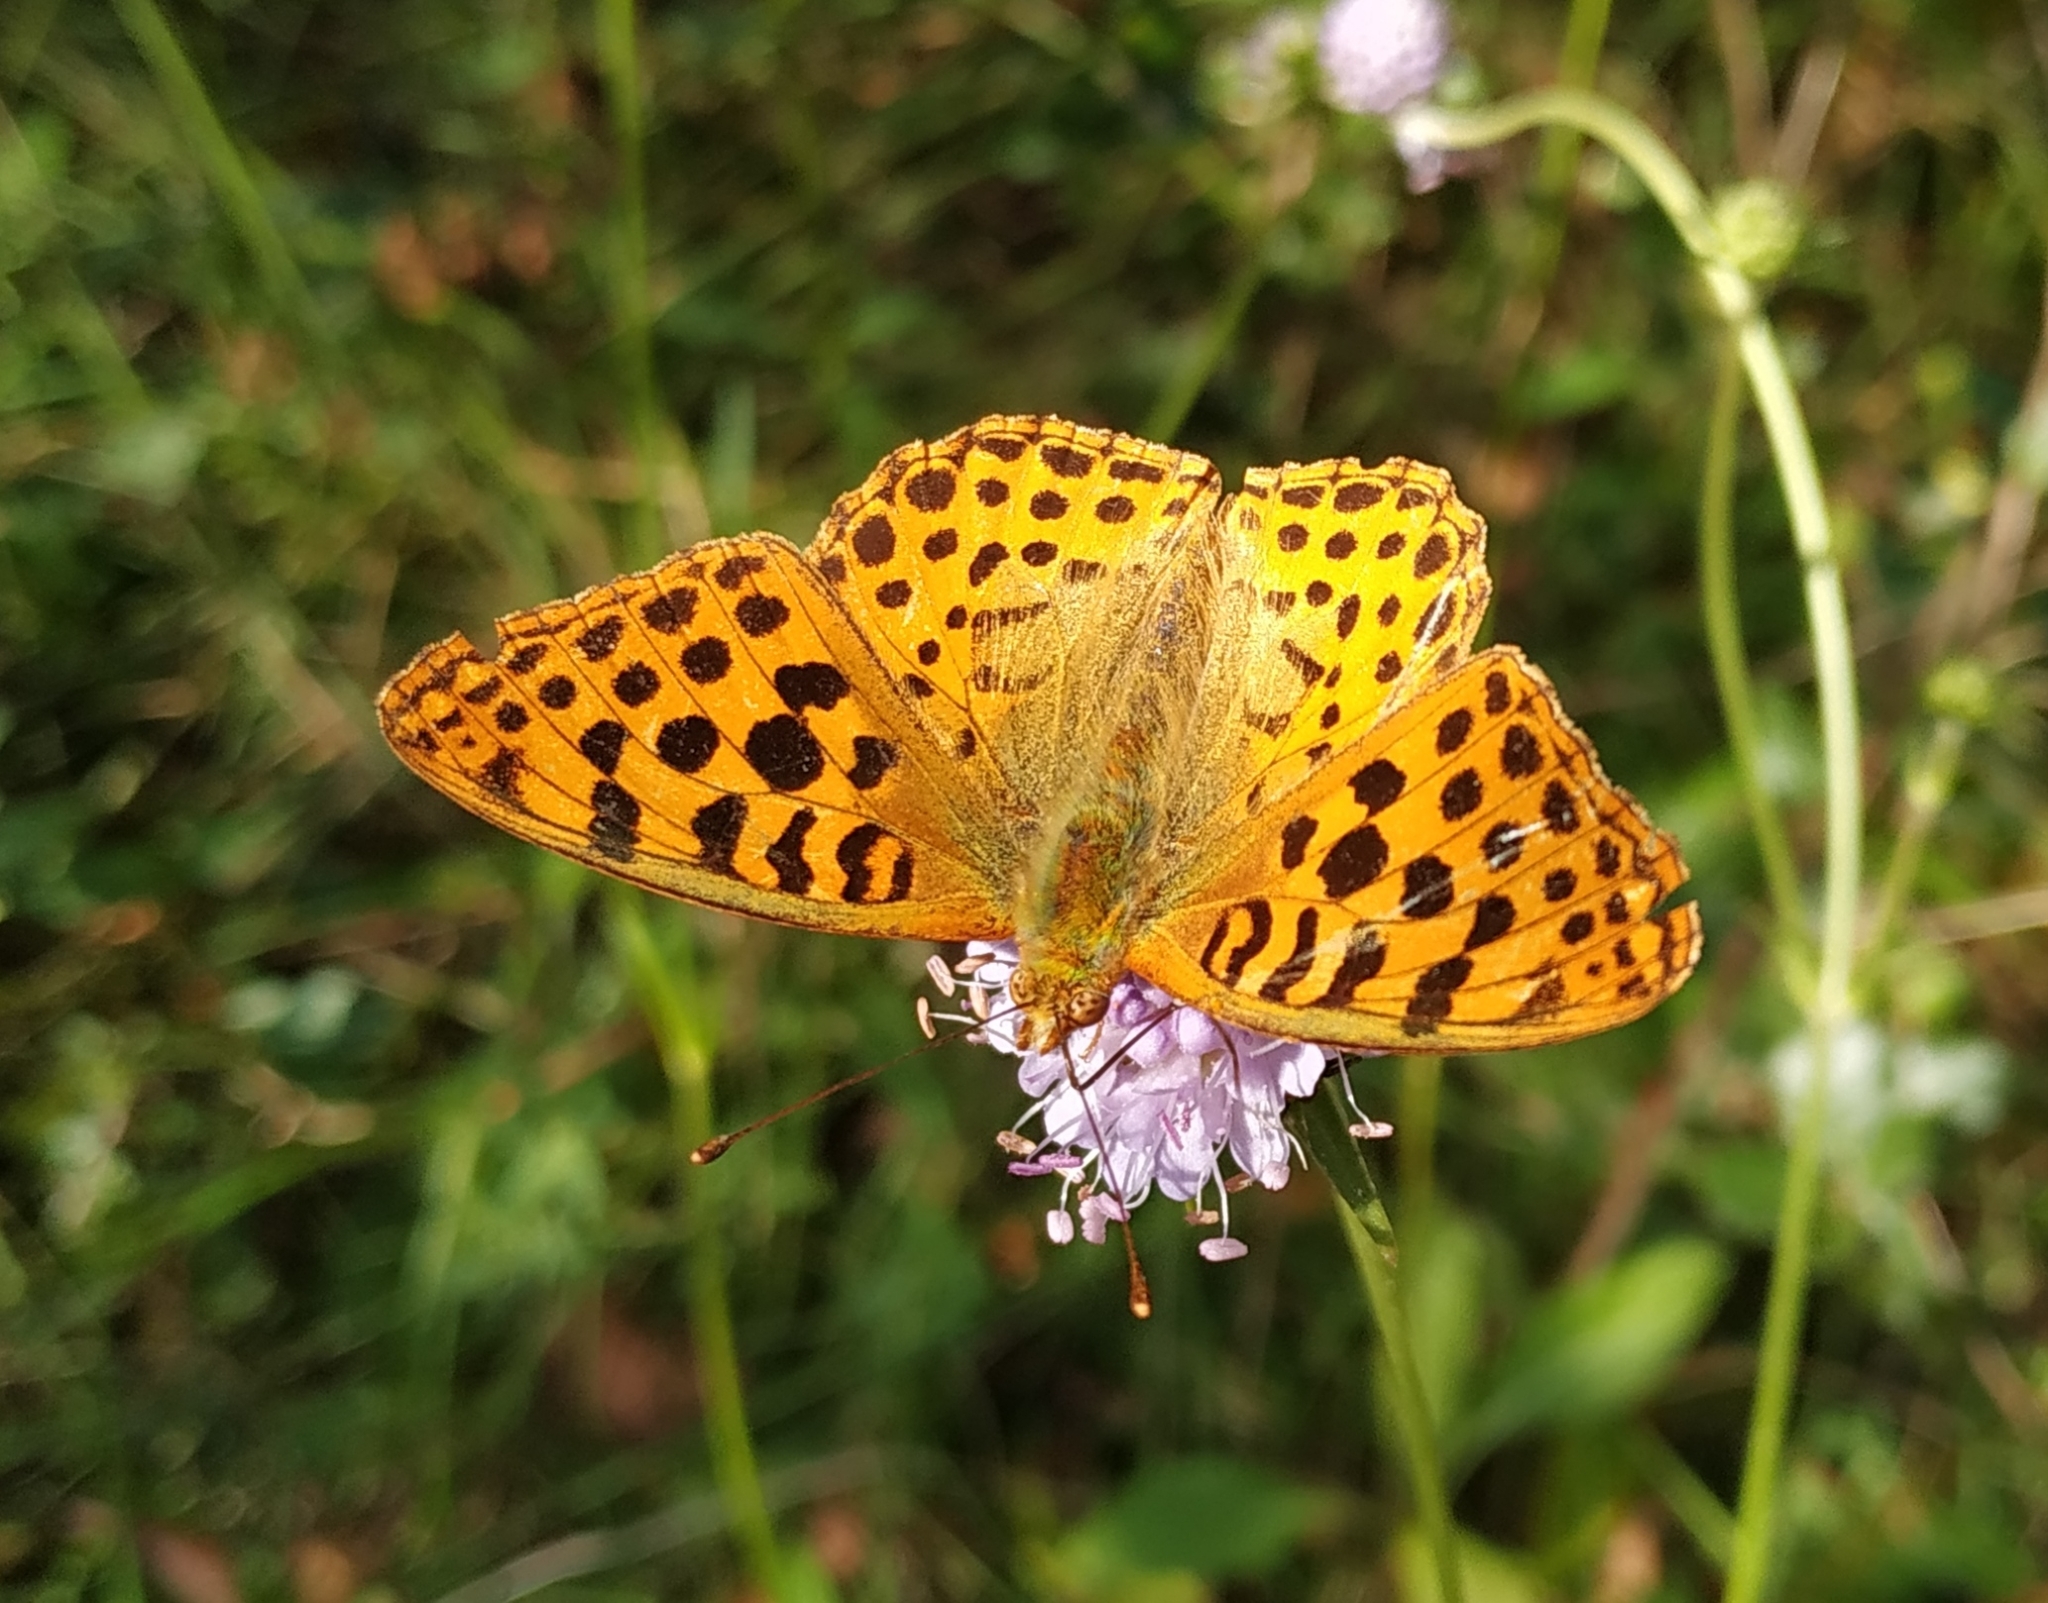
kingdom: Animalia
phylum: Arthropoda
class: Insecta
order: Lepidoptera
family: Nymphalidae
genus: Issoria
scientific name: Issoria lathonia
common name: Queen of spain fritillary
